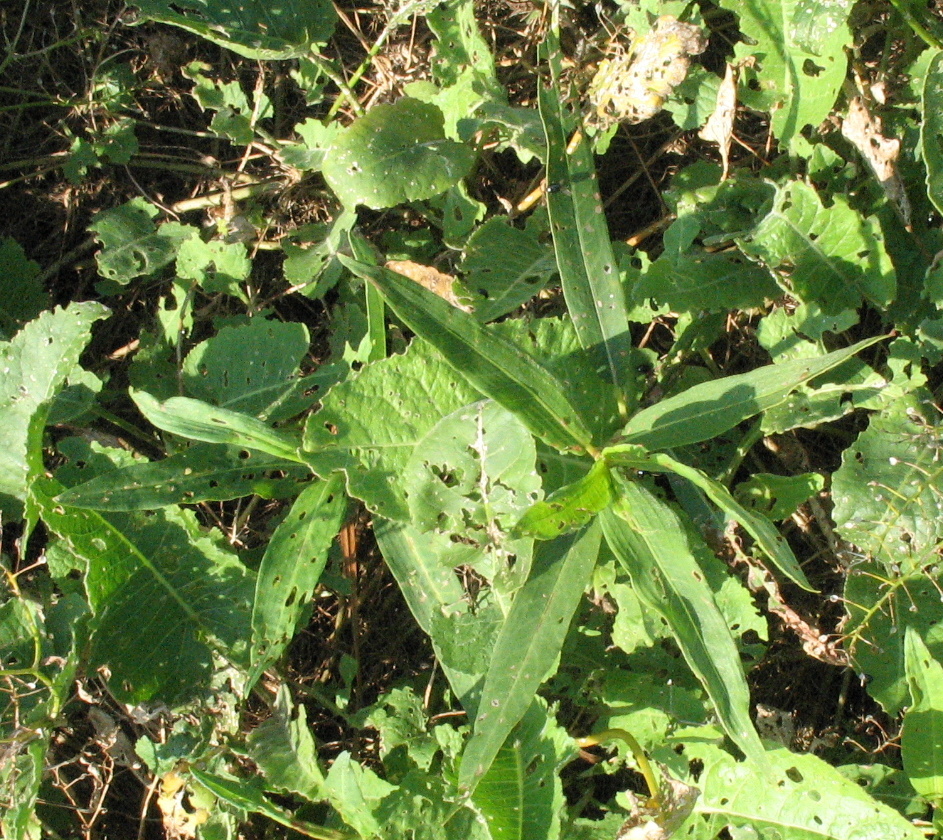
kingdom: Plantae
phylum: Tracheophyta
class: Magnoliopsida
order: Caryophyllales
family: Polygonaceae
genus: Persicaria
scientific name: Persicaria amphibia
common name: Amphibious bistort
